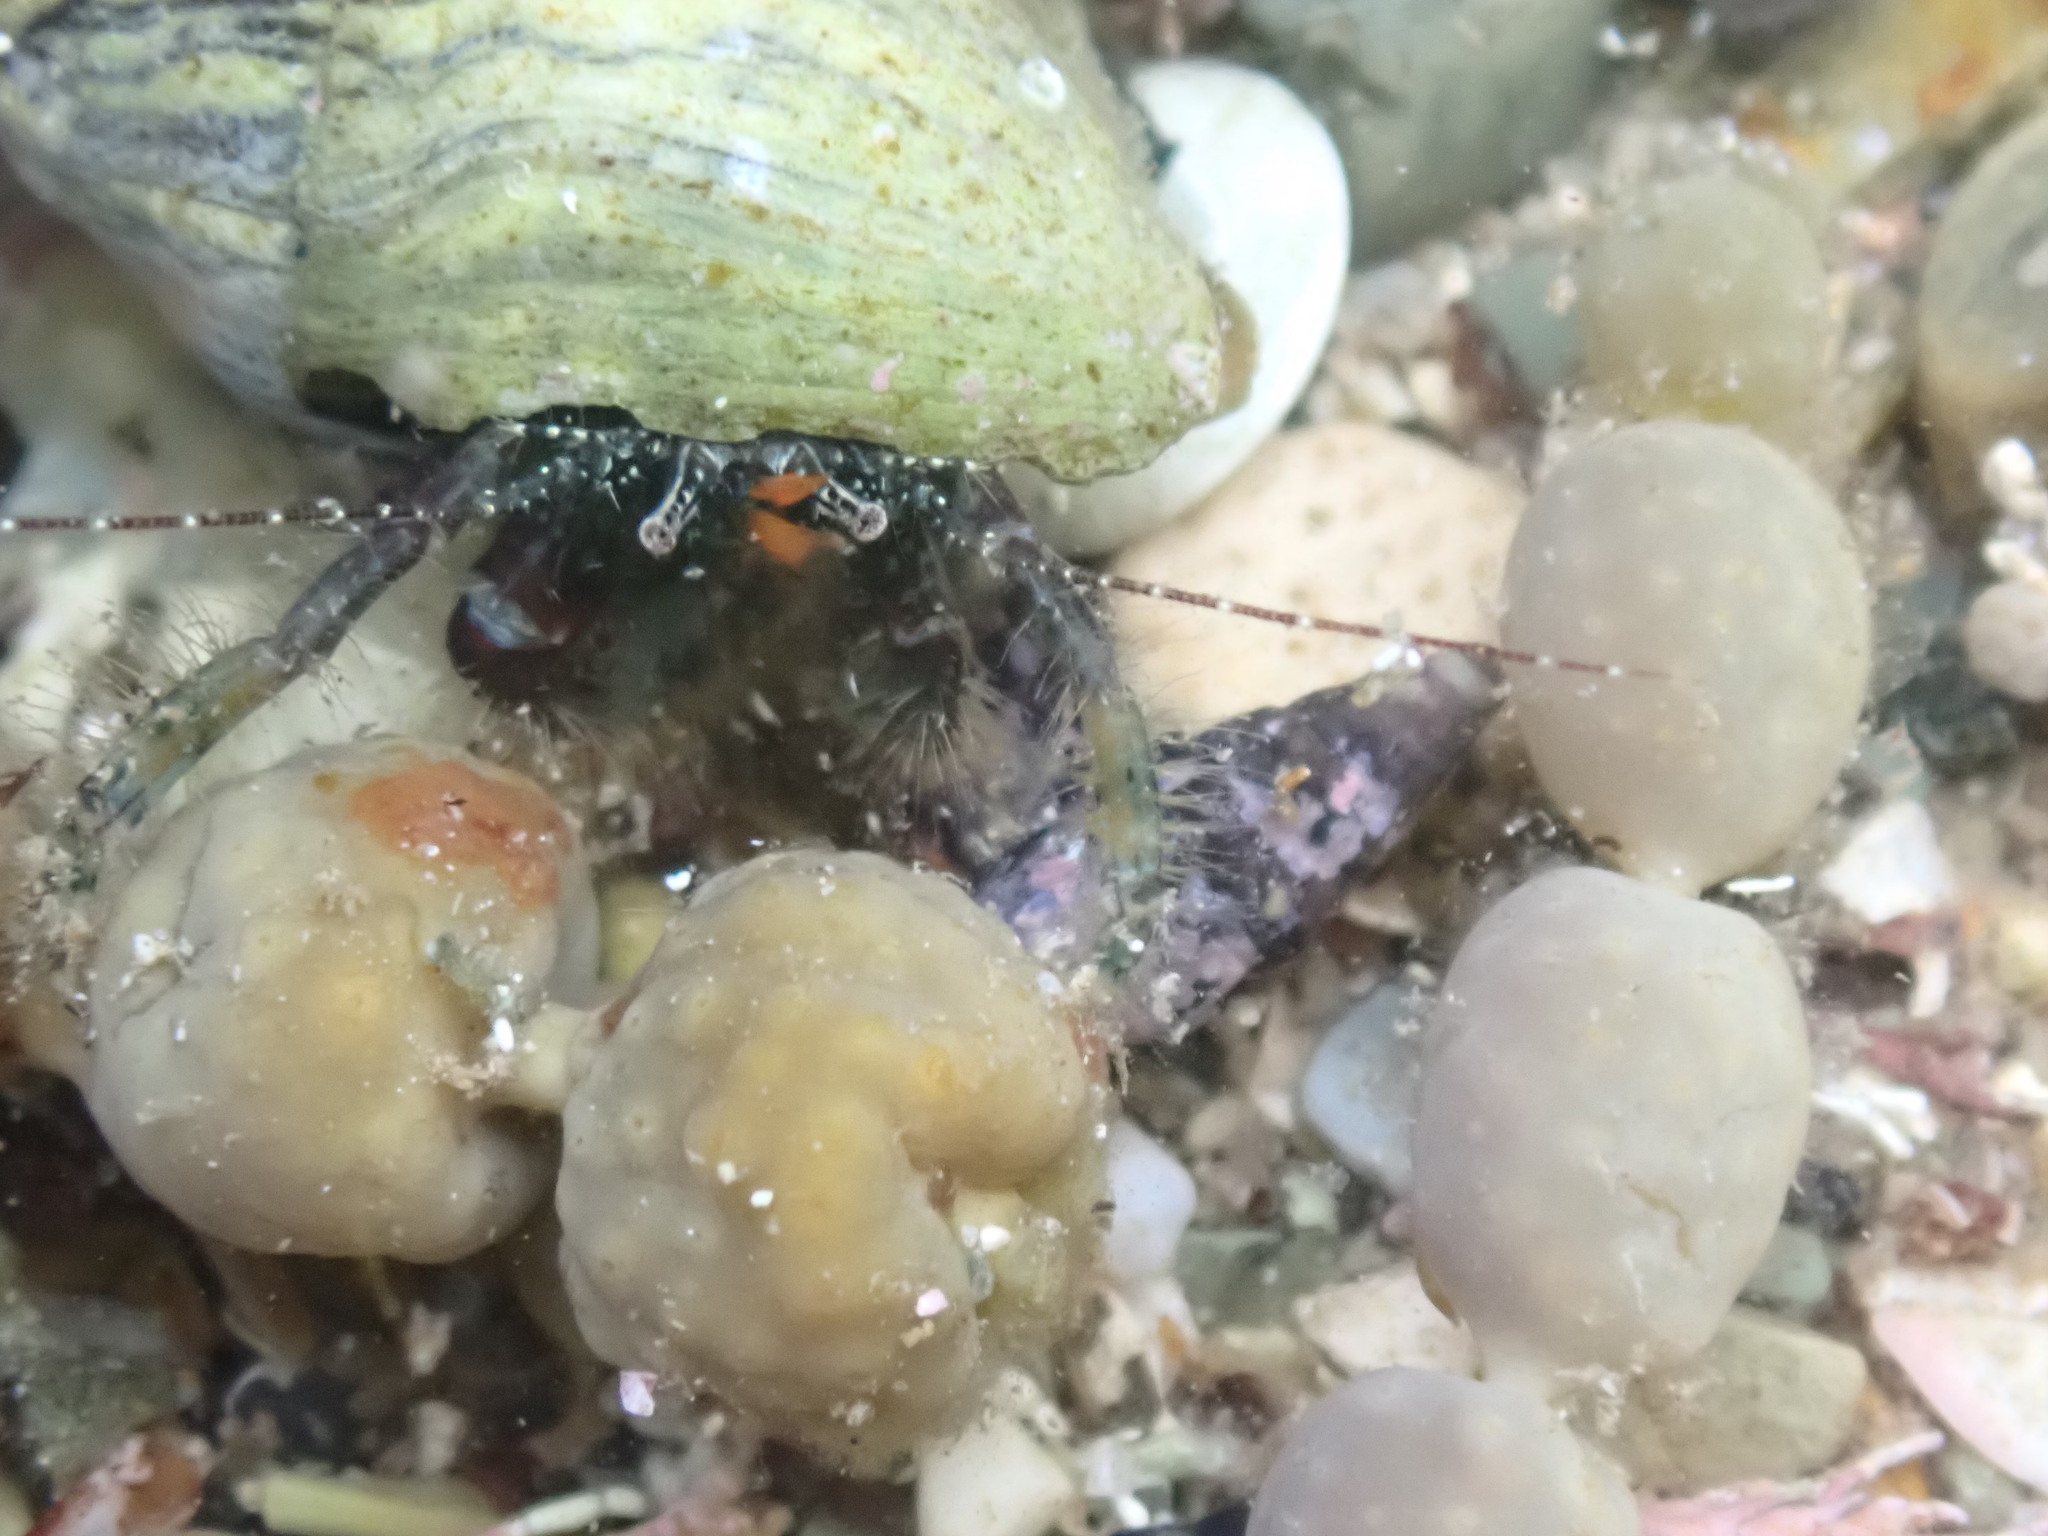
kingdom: Animalia
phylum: Arthropoda
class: Malacostraca
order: Decapoda
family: Paguridae
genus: Pagurus
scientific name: Pagurus traversi
